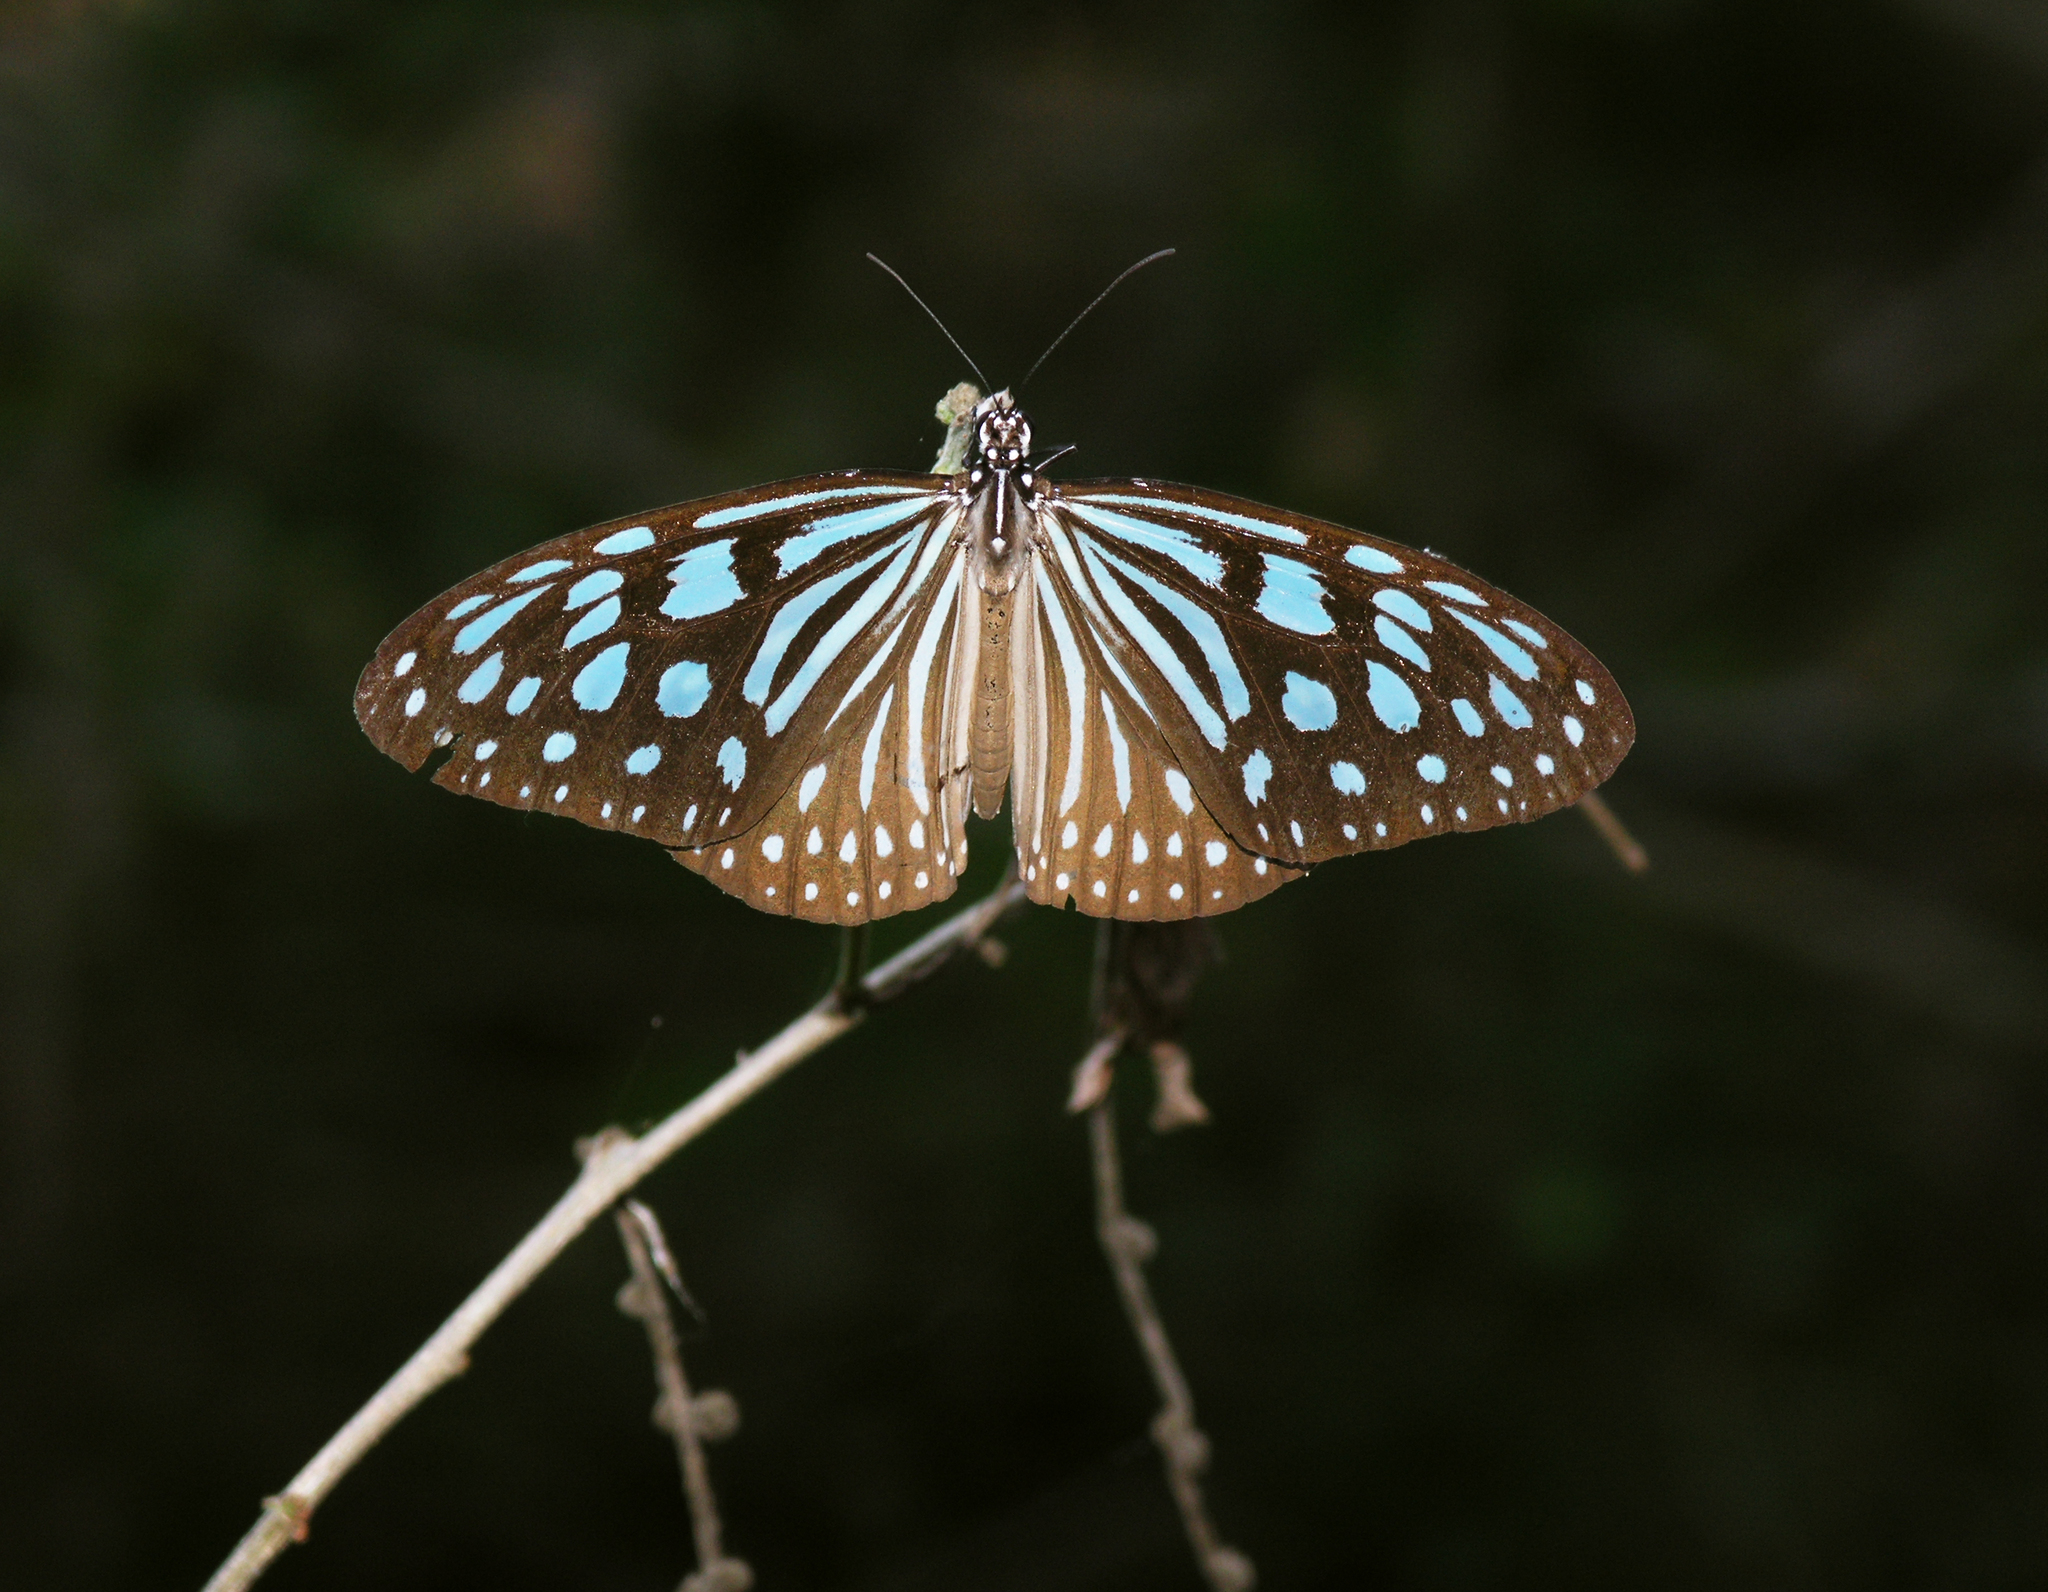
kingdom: Animalia
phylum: Arthropoda
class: Insecta
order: Lepidoptera
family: Nymphalidae
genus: Ideopsis
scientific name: Ideopsis similis
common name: Ceylon blue glassy tiger
